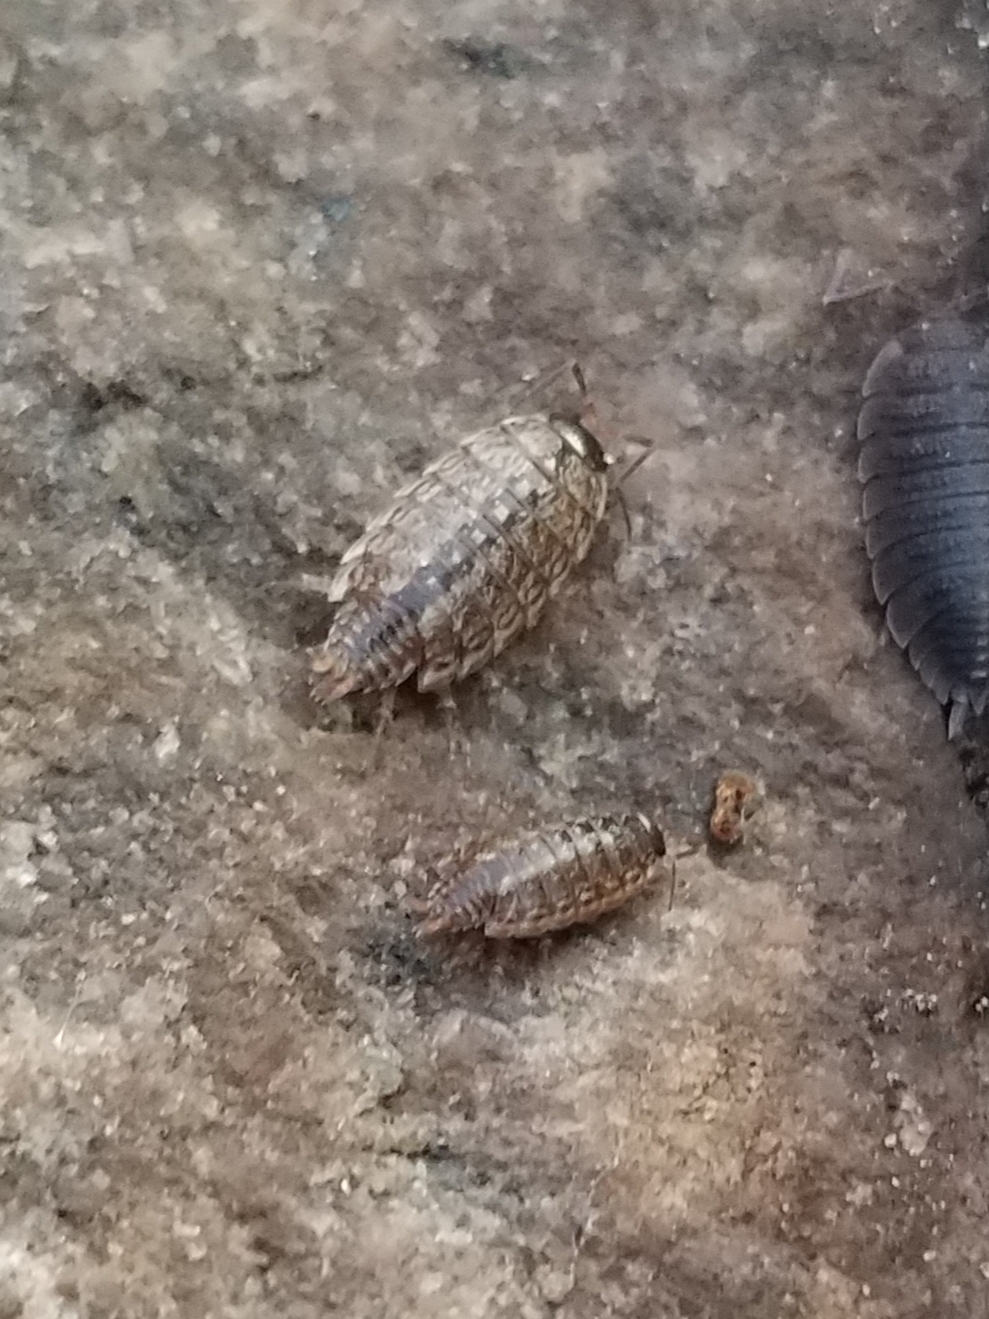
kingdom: Animalia
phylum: Arthropoda
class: Malacostraca
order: Isopoda
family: Philosciidae
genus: Philoscia
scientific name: Philoscia muscorum
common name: Common striped woodlouse
